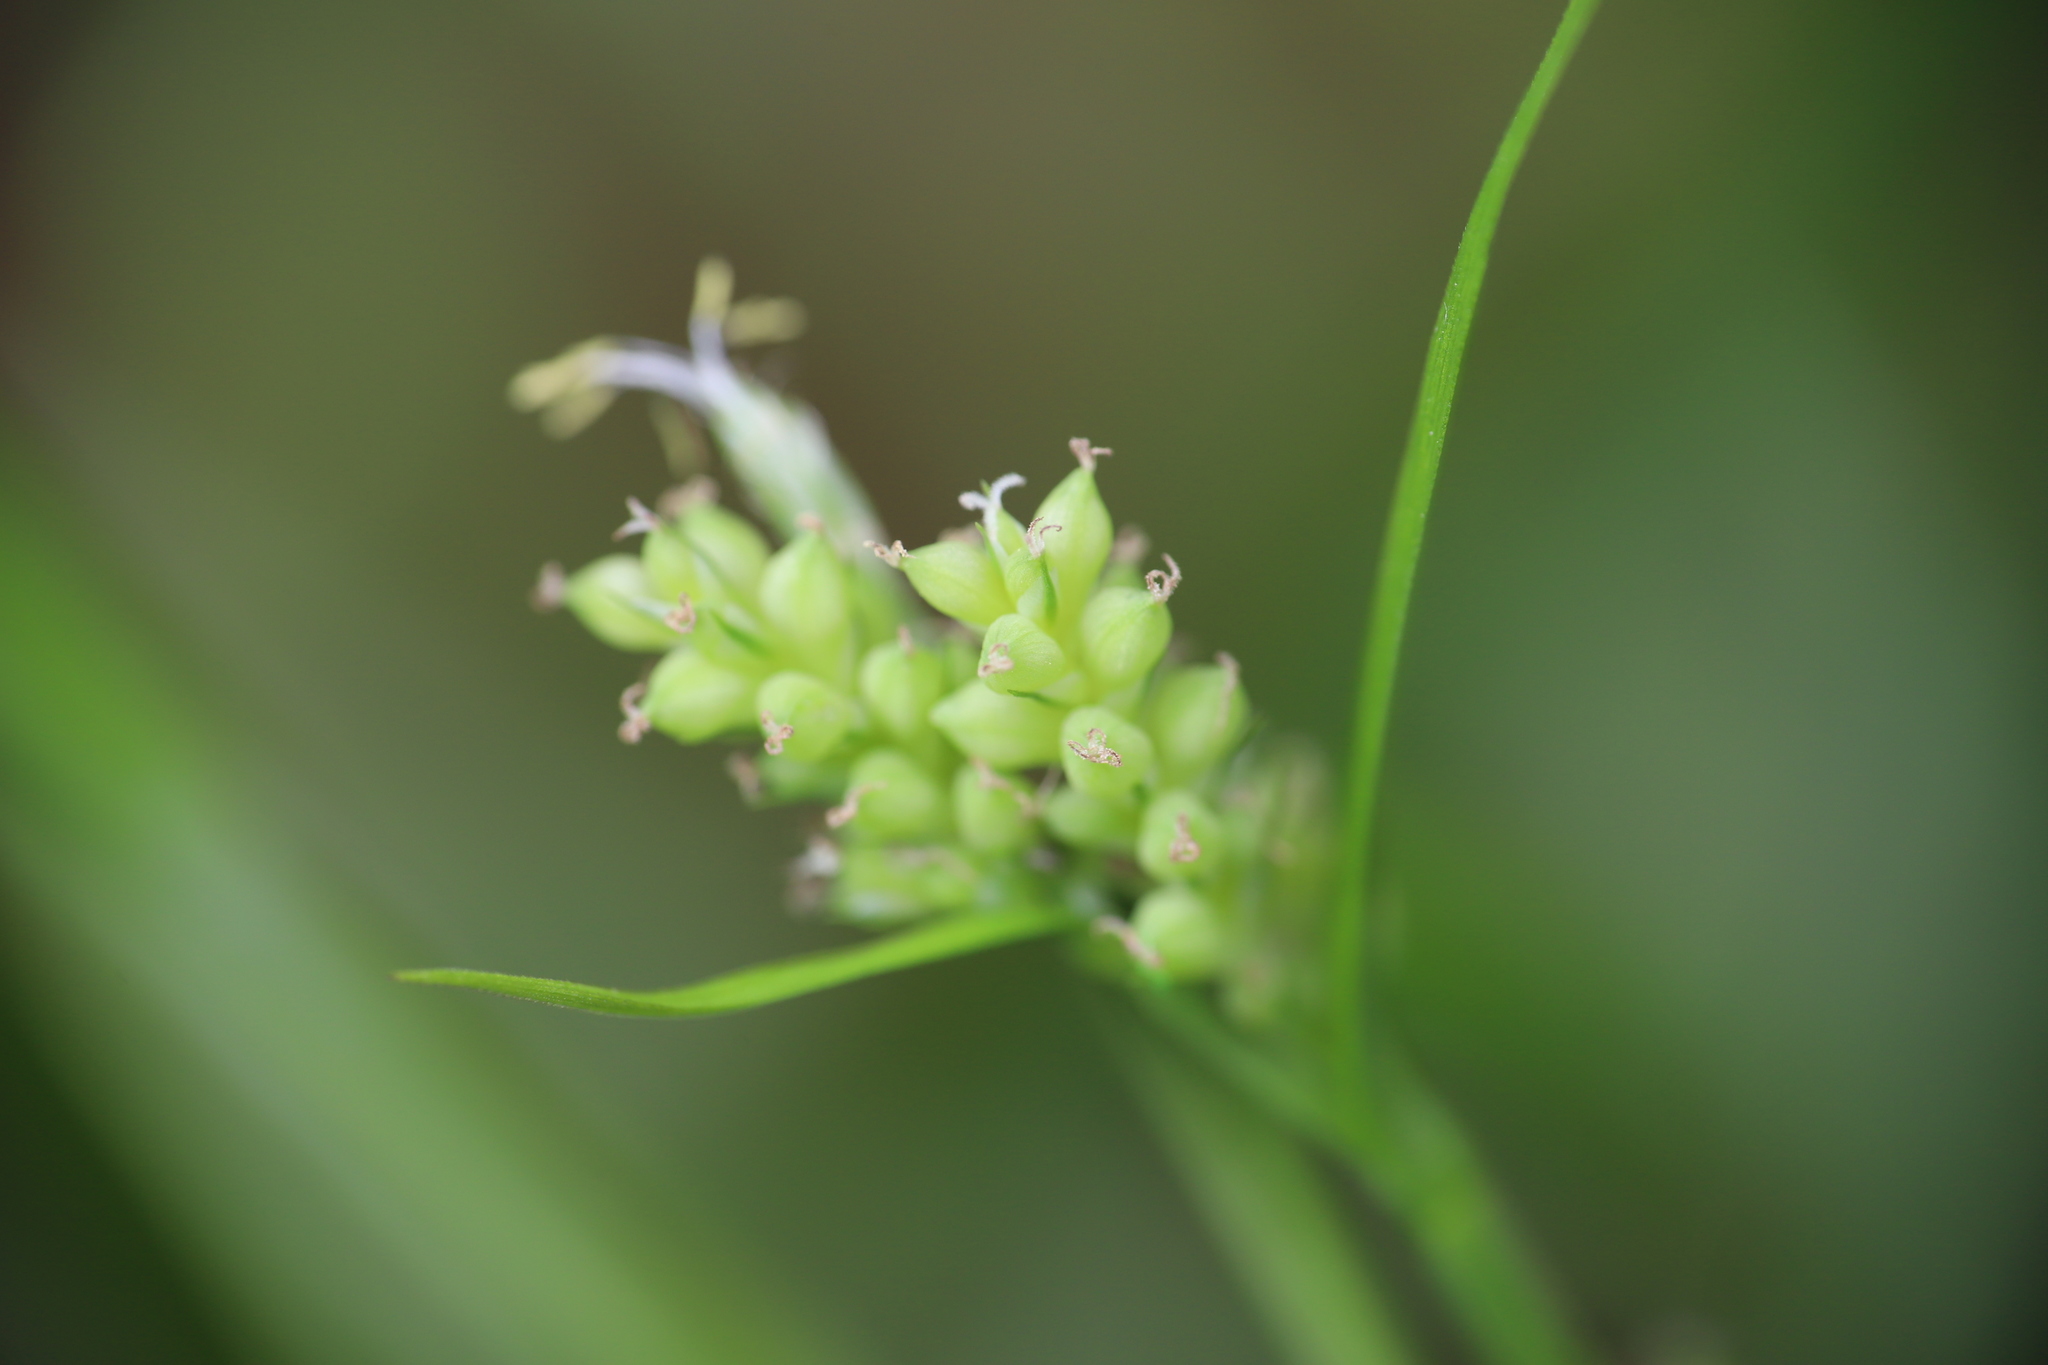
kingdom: Plantae
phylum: Tracheophyta
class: Liliopsida
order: Poales
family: Cyperaceae
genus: Carex
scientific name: Carex blanda
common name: Bland sedge
